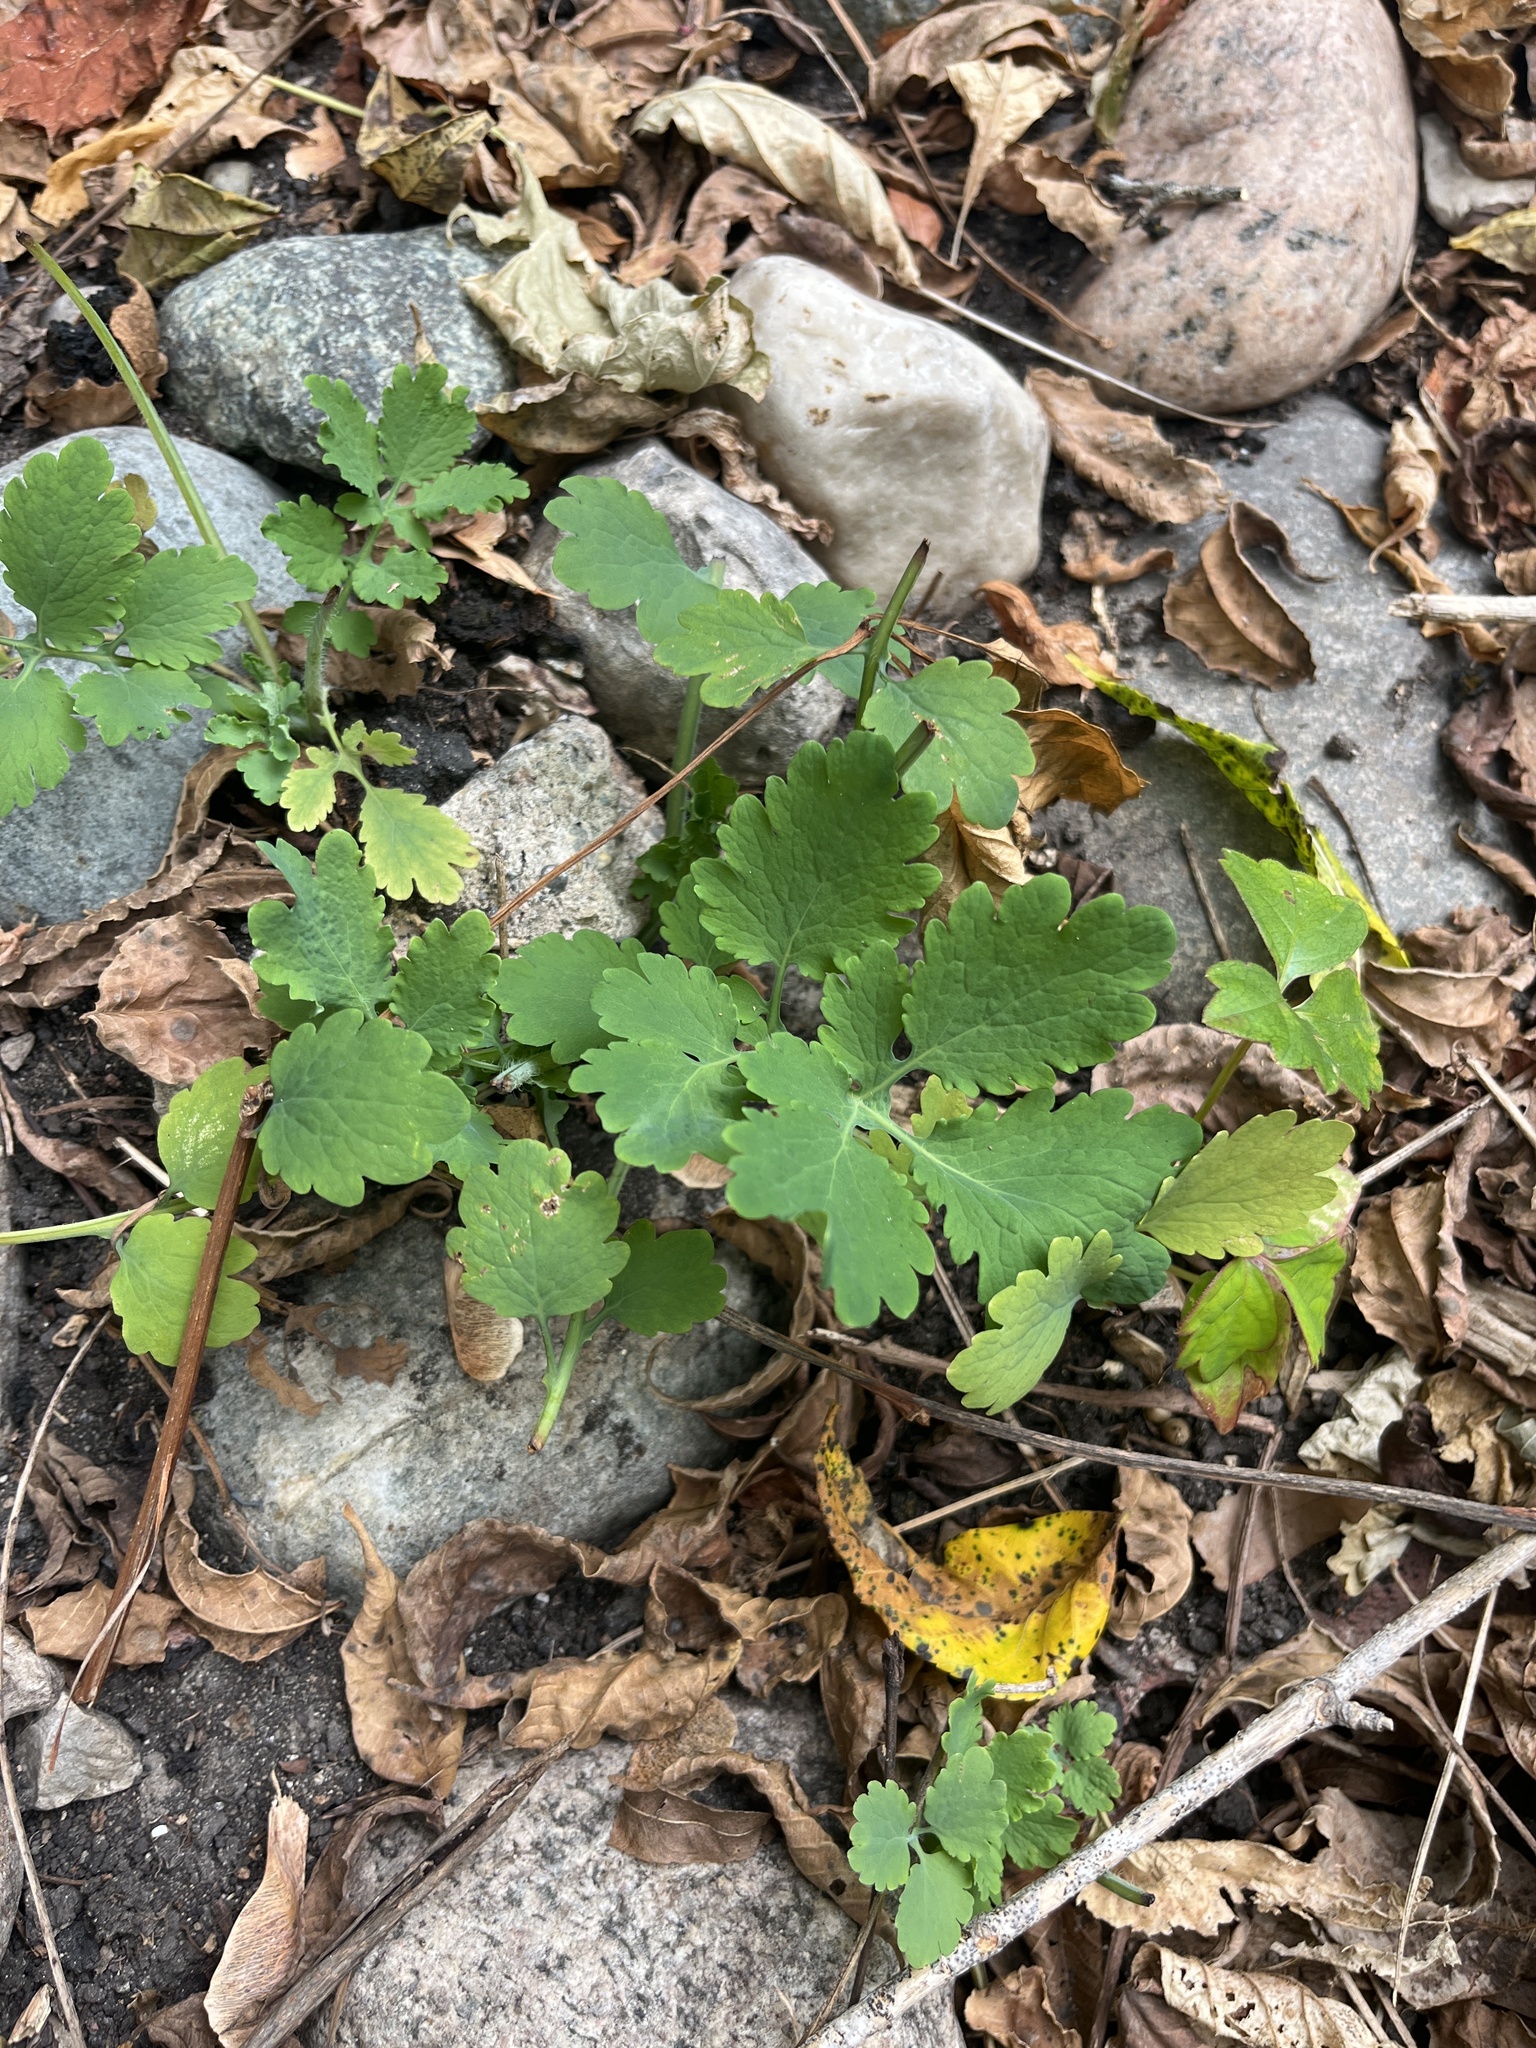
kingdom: Plantae
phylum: Tracheophyta
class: Magnoliopsida
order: Ranunculales
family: Papaveraceae
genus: Chelidonium
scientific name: Chelidonium majus
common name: Greater celandine
